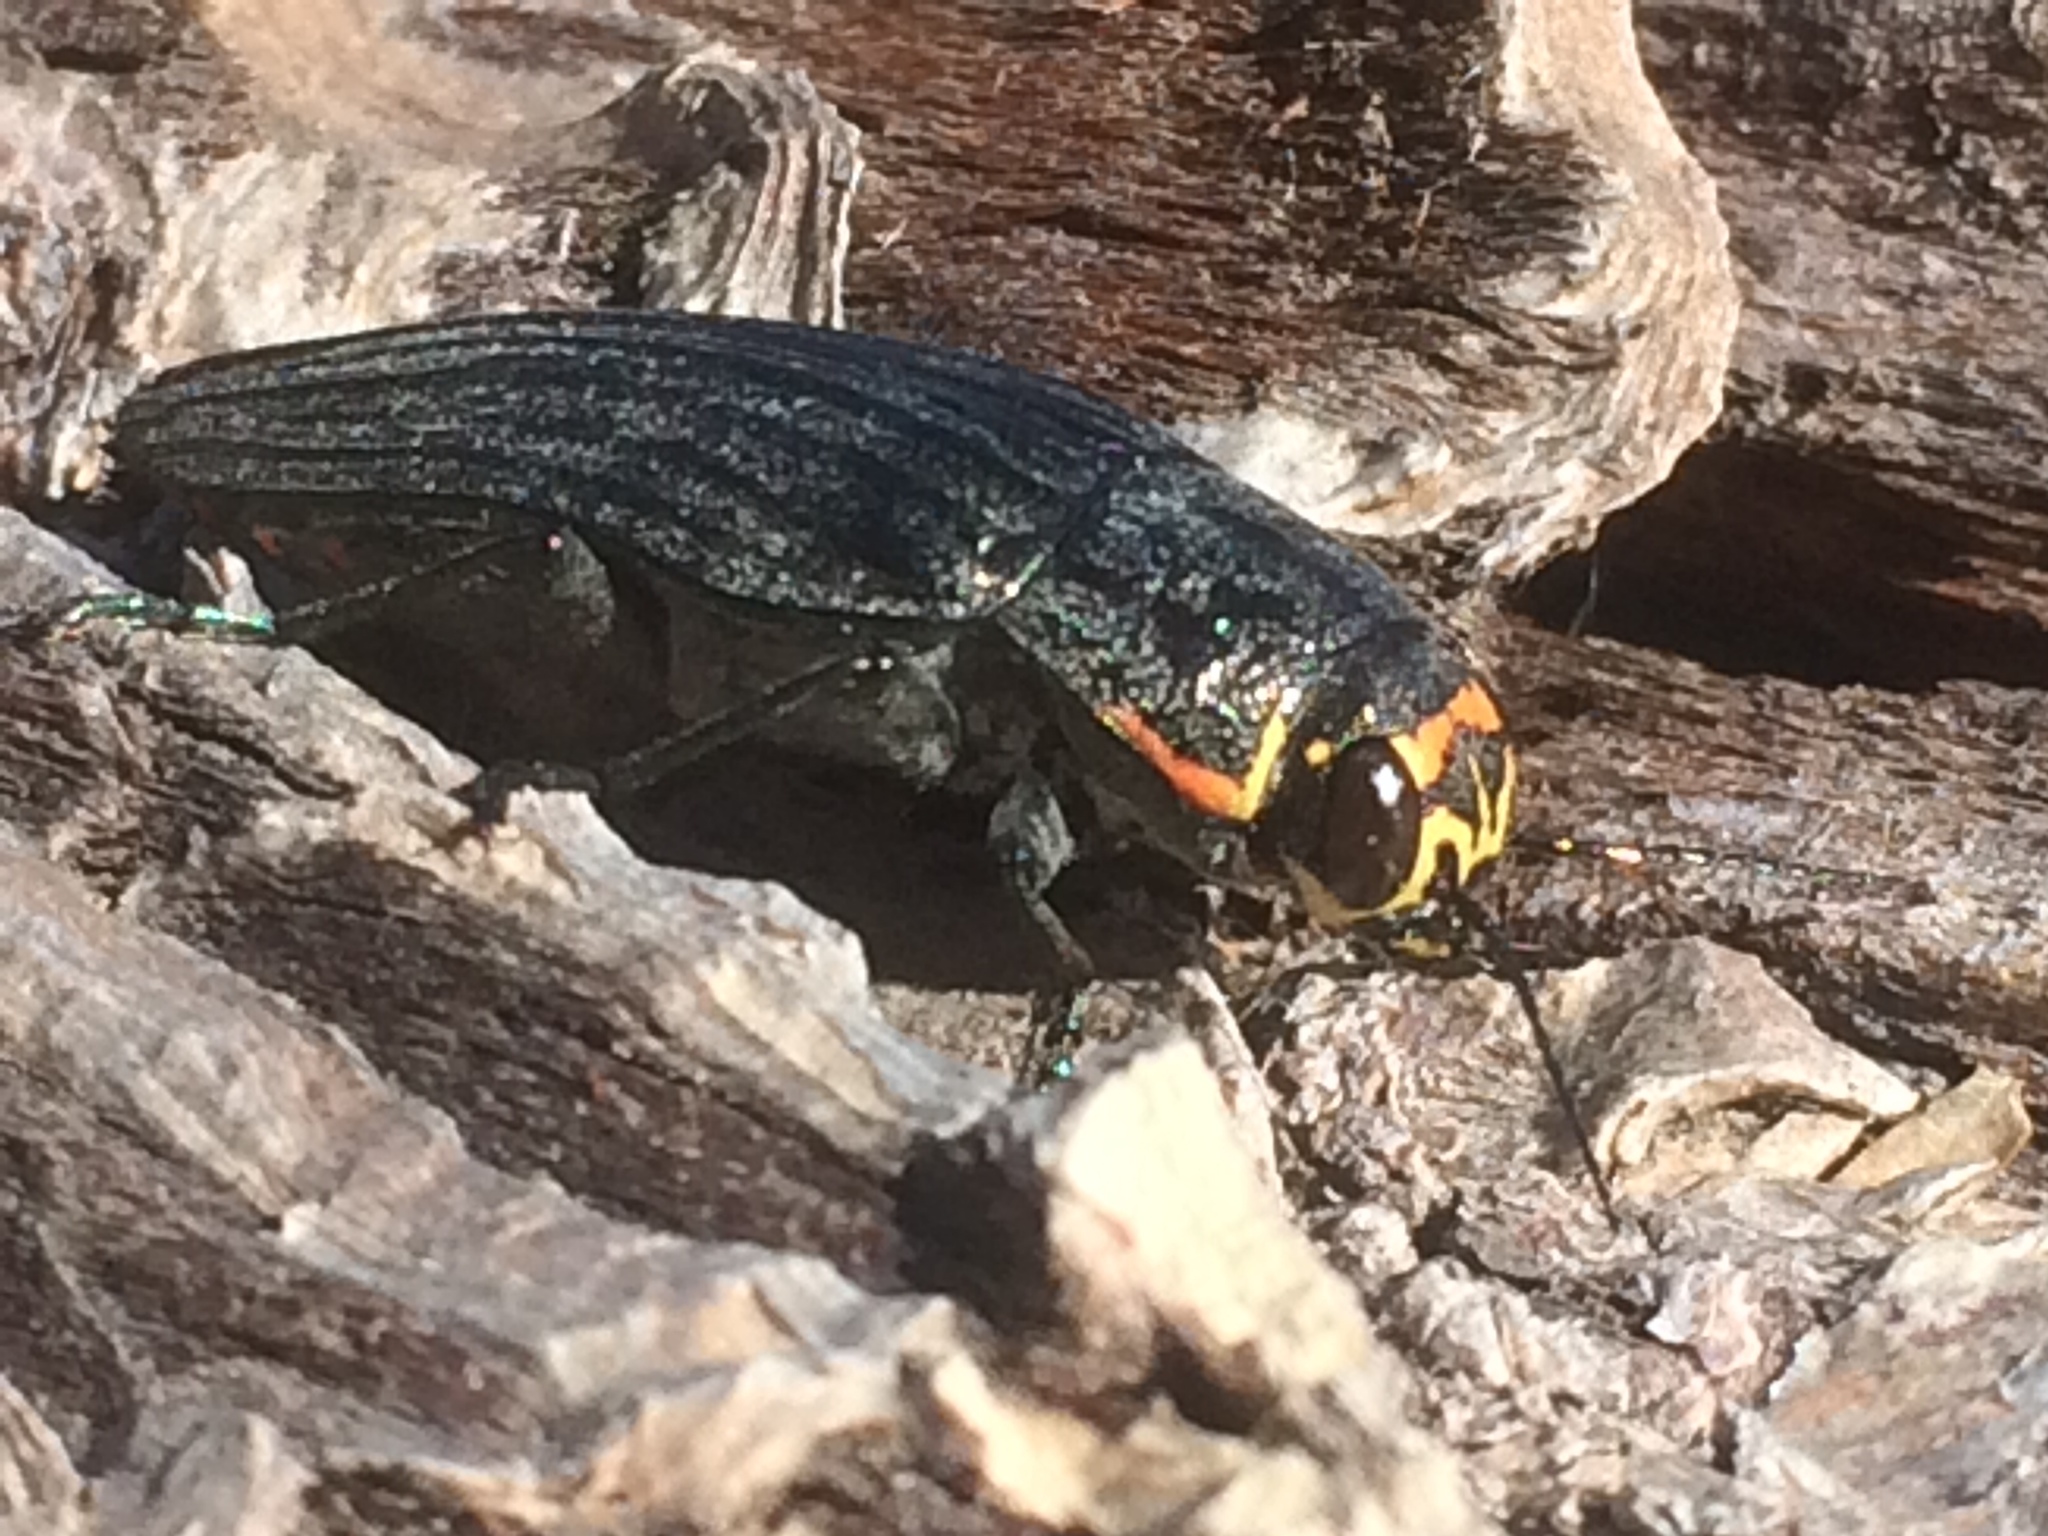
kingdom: Animalia
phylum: Arthropoda
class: Insecta
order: Coleoptera
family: Buprestidae
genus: Buprestis
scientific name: Buprestis lyrata
